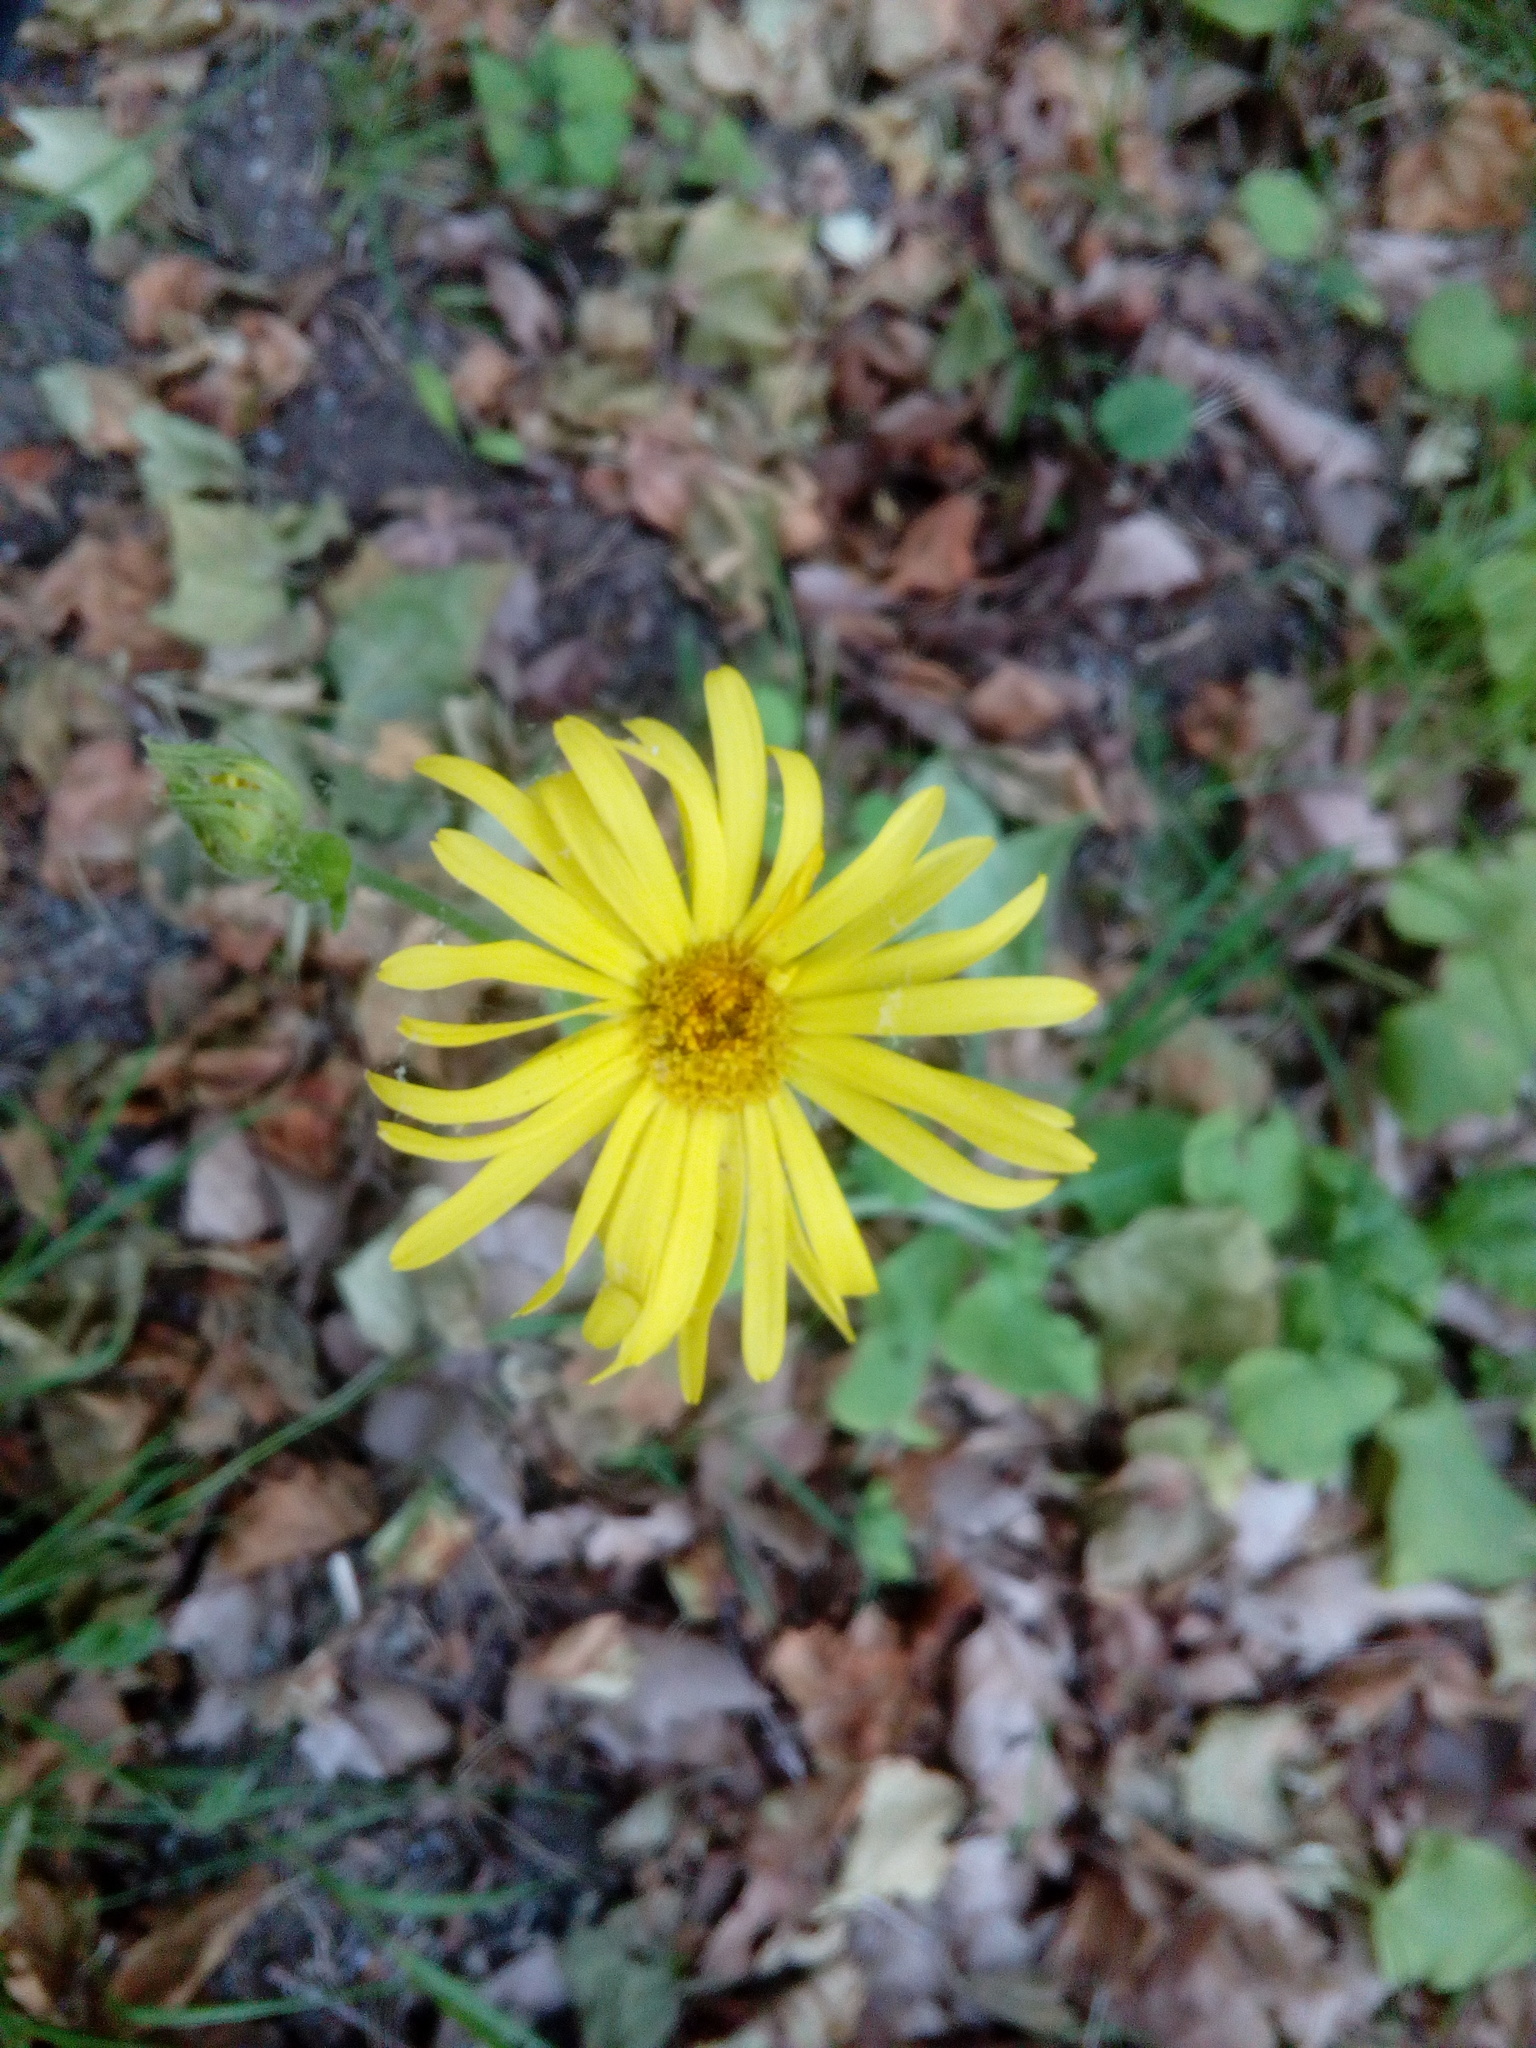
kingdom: Plantae
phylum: Tracheophyta
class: Magnoliopsida
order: Asterales
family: Asteraceae
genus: Doronicum
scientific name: Doronicum pardalianches
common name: Leopard's-bane
